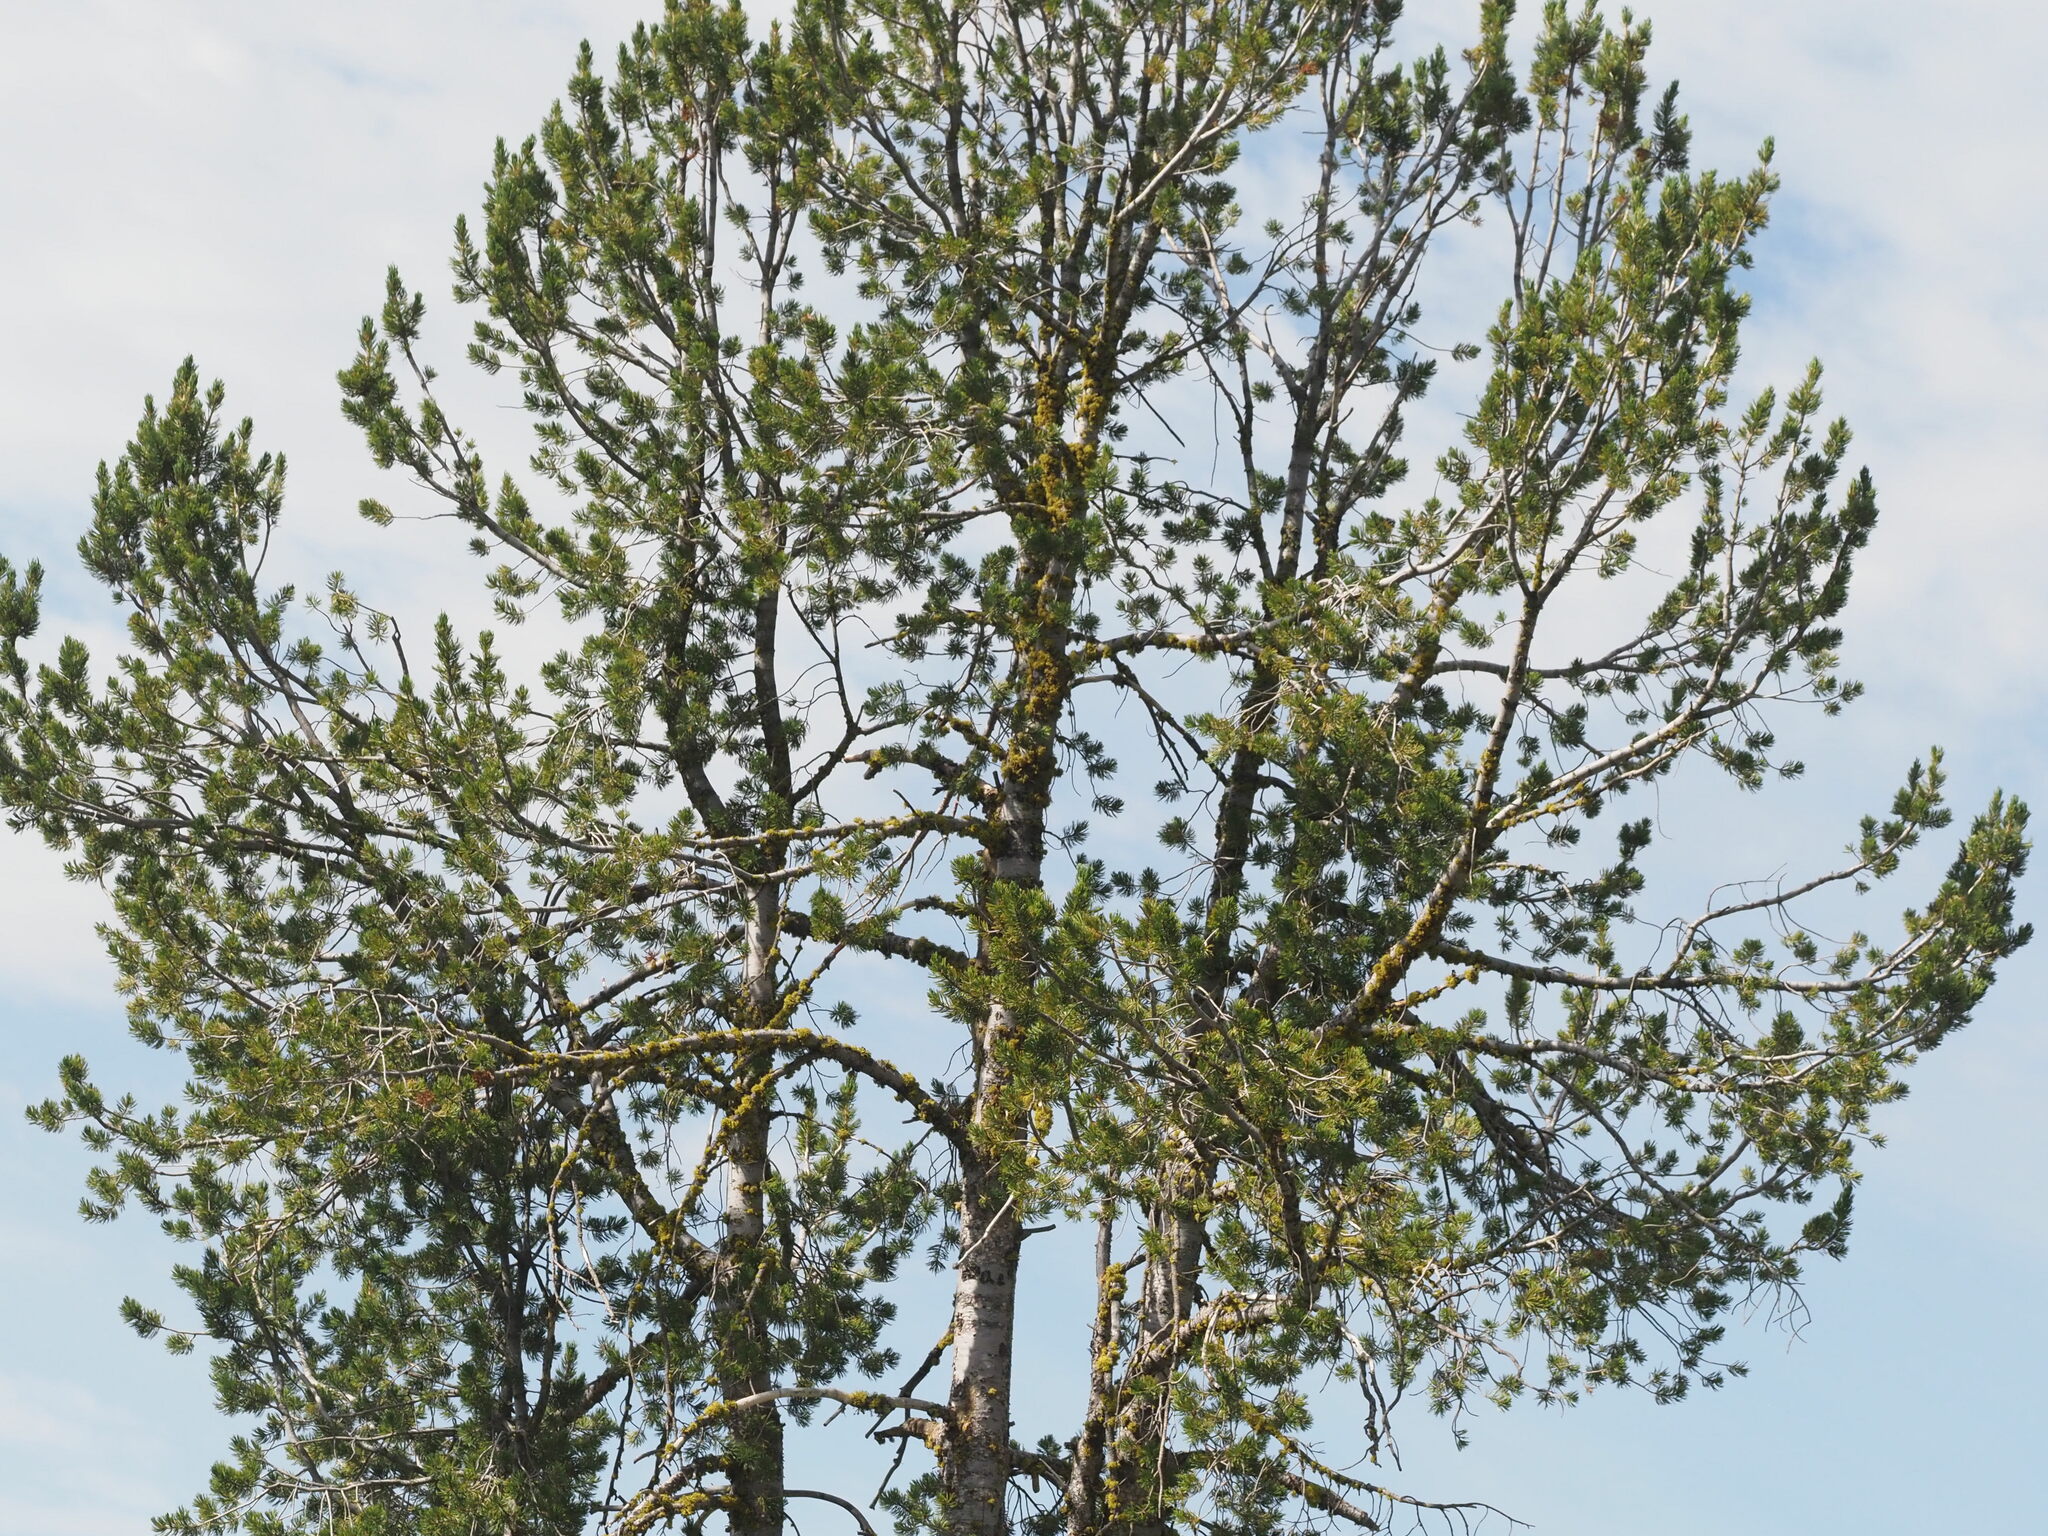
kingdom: Plantae
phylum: Tracheophyta
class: Pinopsida
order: Pinales
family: Pinaceae
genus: Pinus
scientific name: Pinus albicaulis
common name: Whitebark pine
